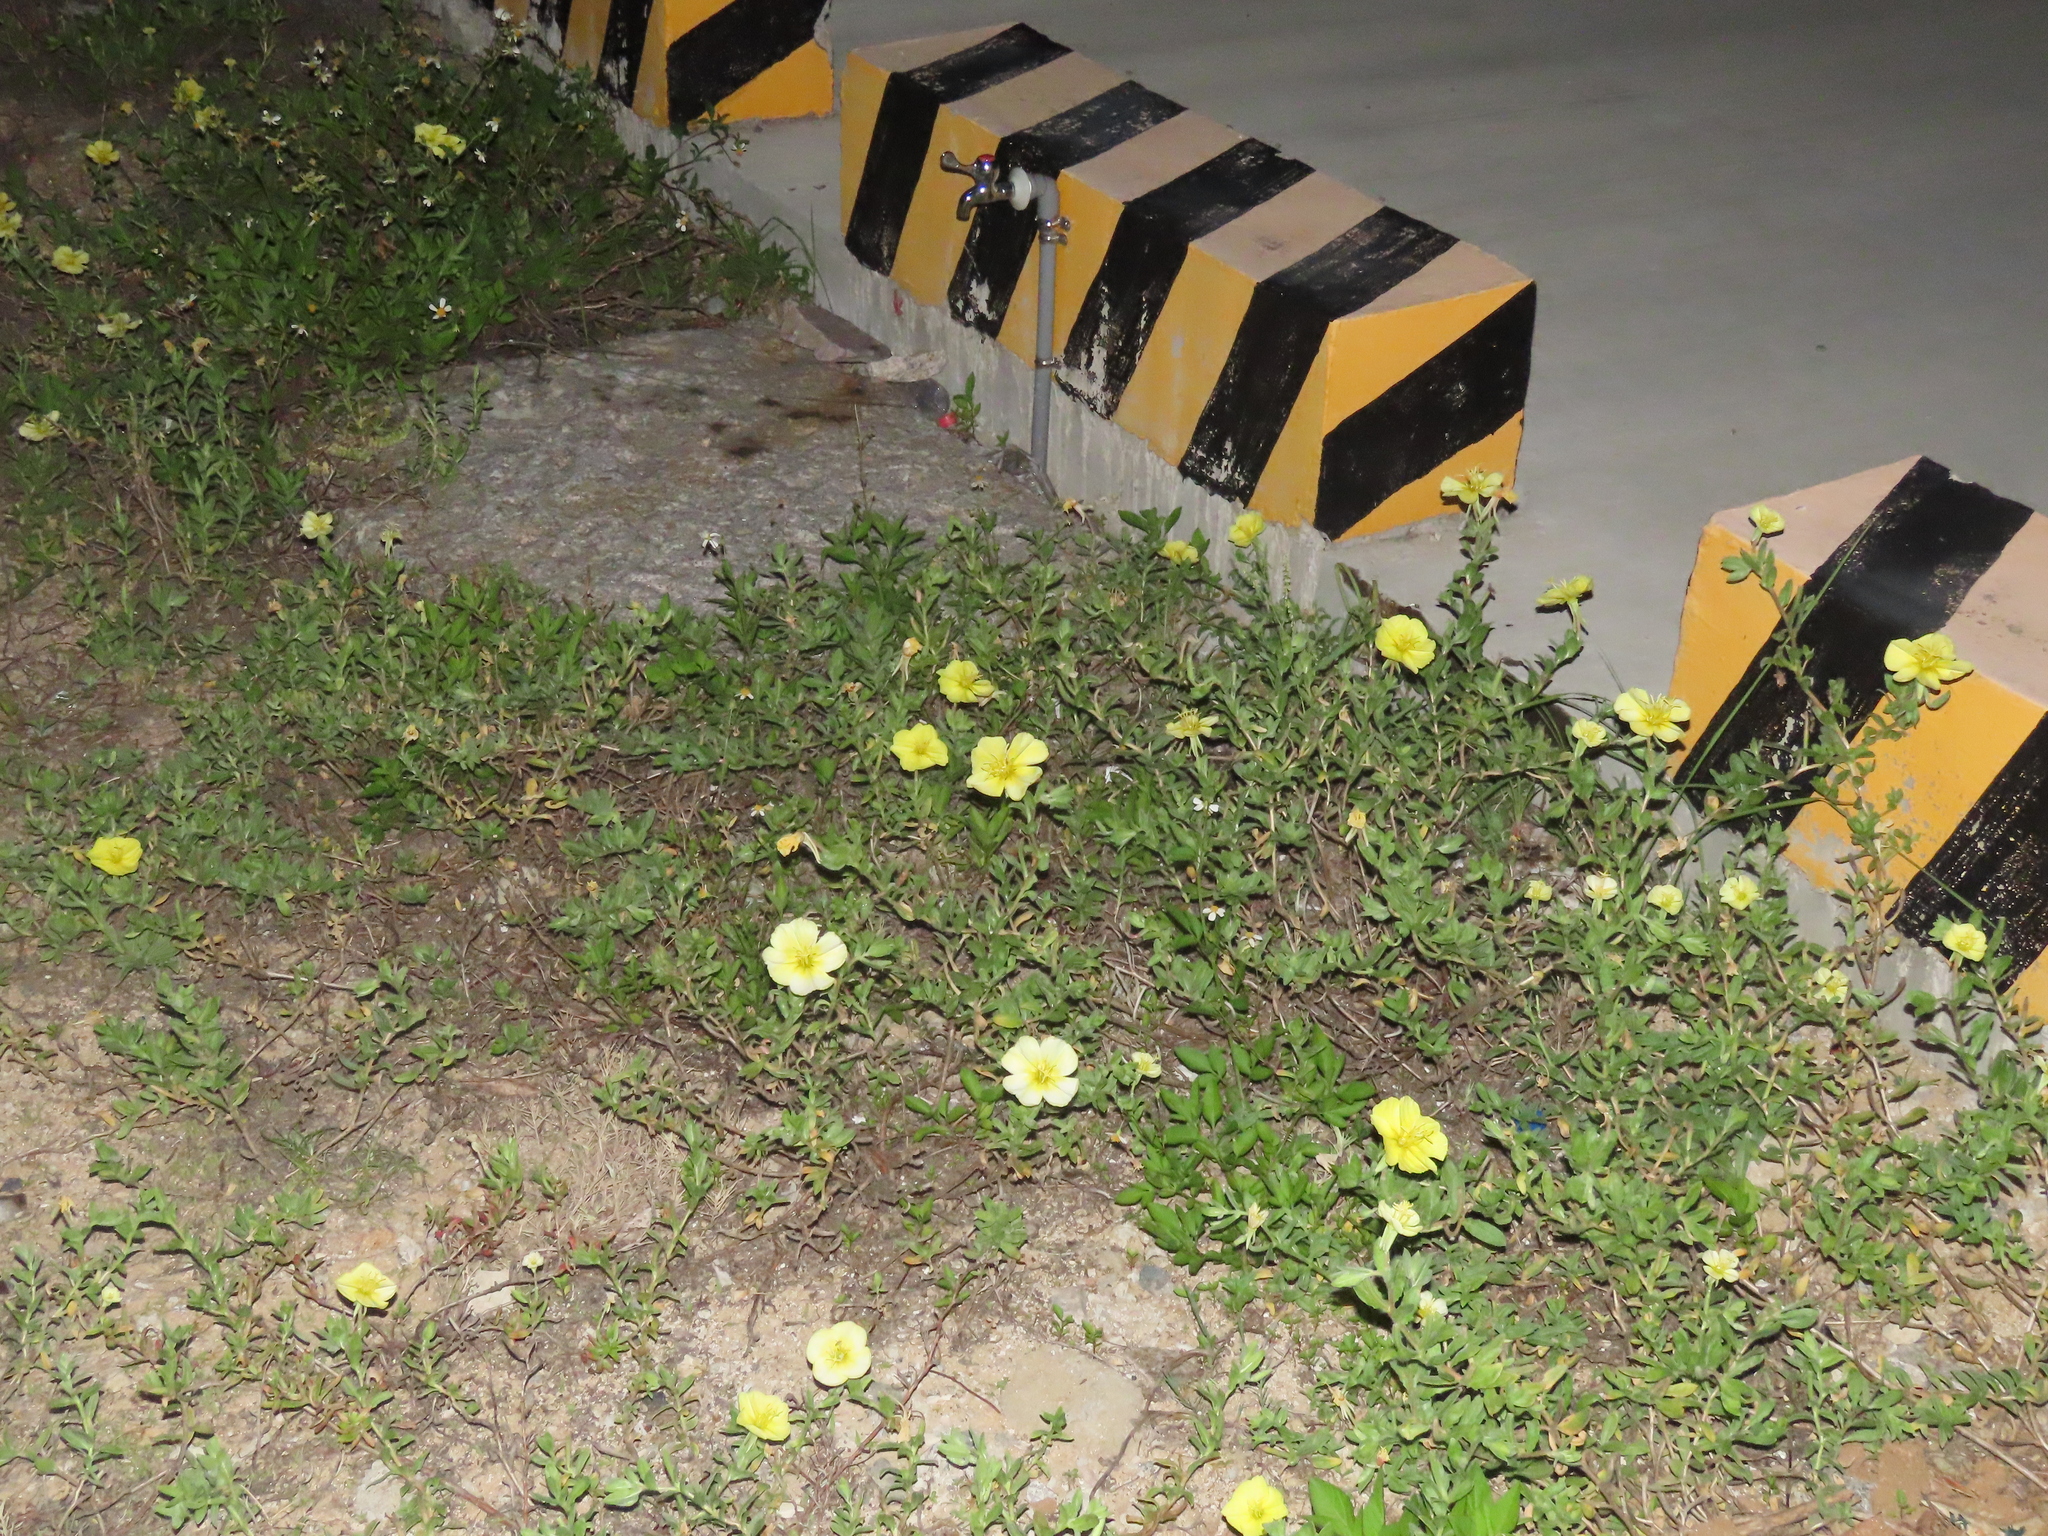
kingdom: Plantae
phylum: Tracheophyta
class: Magnoliopsida
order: Myrtales
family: Onagraceae
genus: Oenothera
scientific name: Oenothera drummondii
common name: Beach evening-primrose
